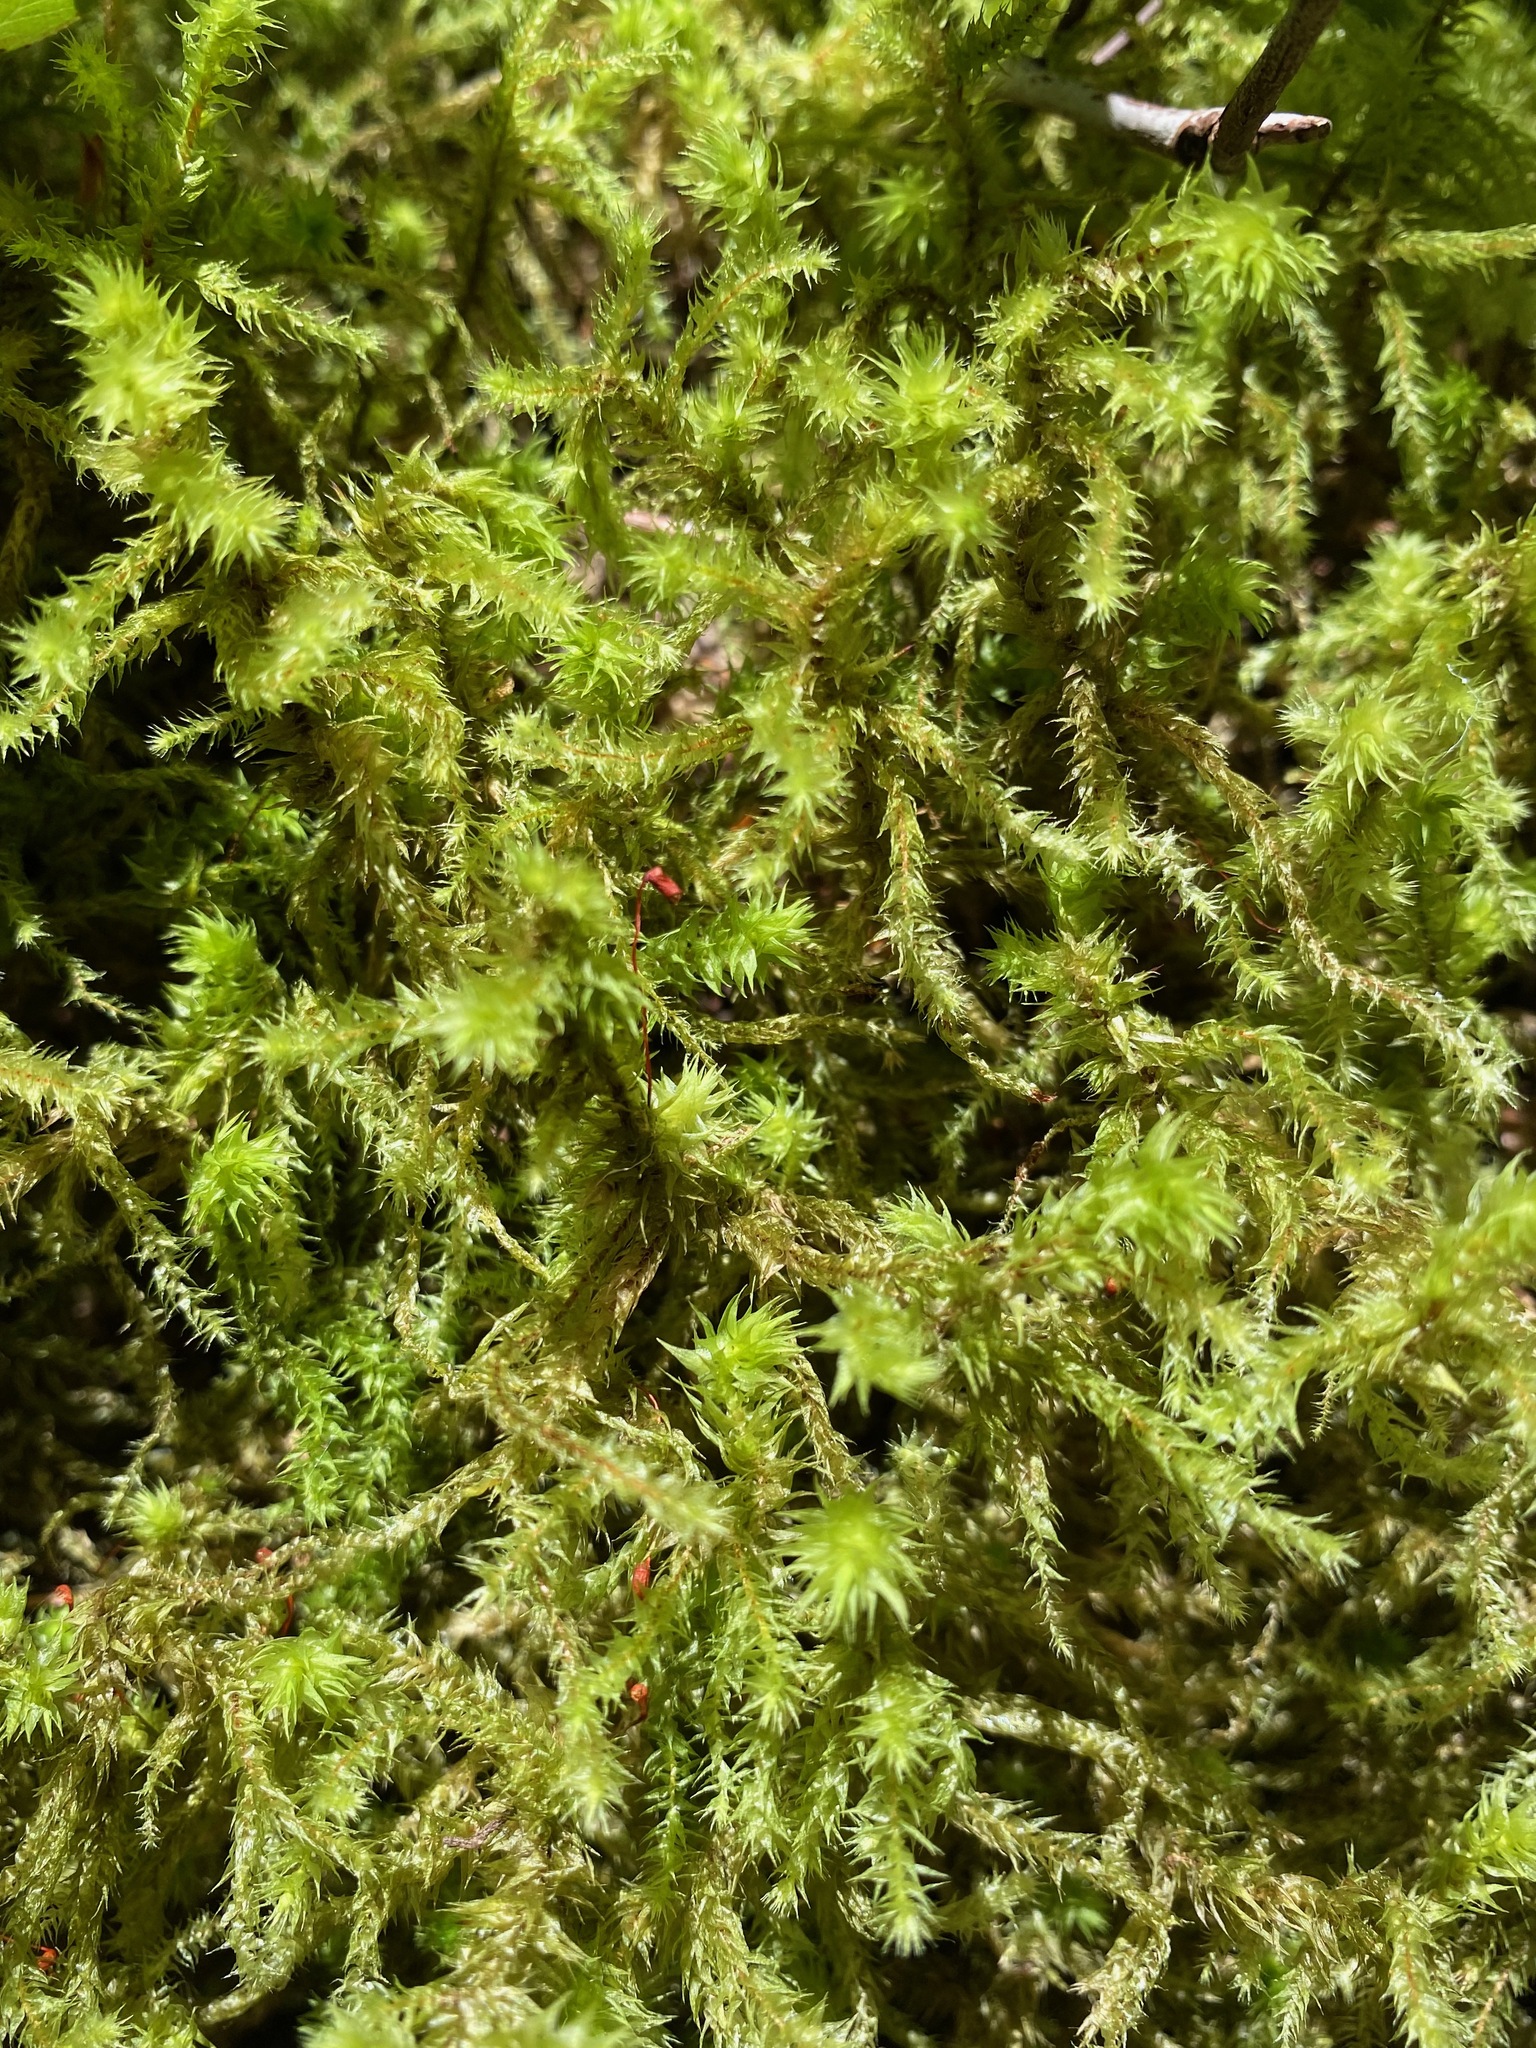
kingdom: Plantae
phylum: Bryophyta
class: Bryopsida
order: Hypnales
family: Hylocomiaceae
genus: Hylocomiadelphus
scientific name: Hylocomiadelphus triquetrus
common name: Rough goose neck moss
